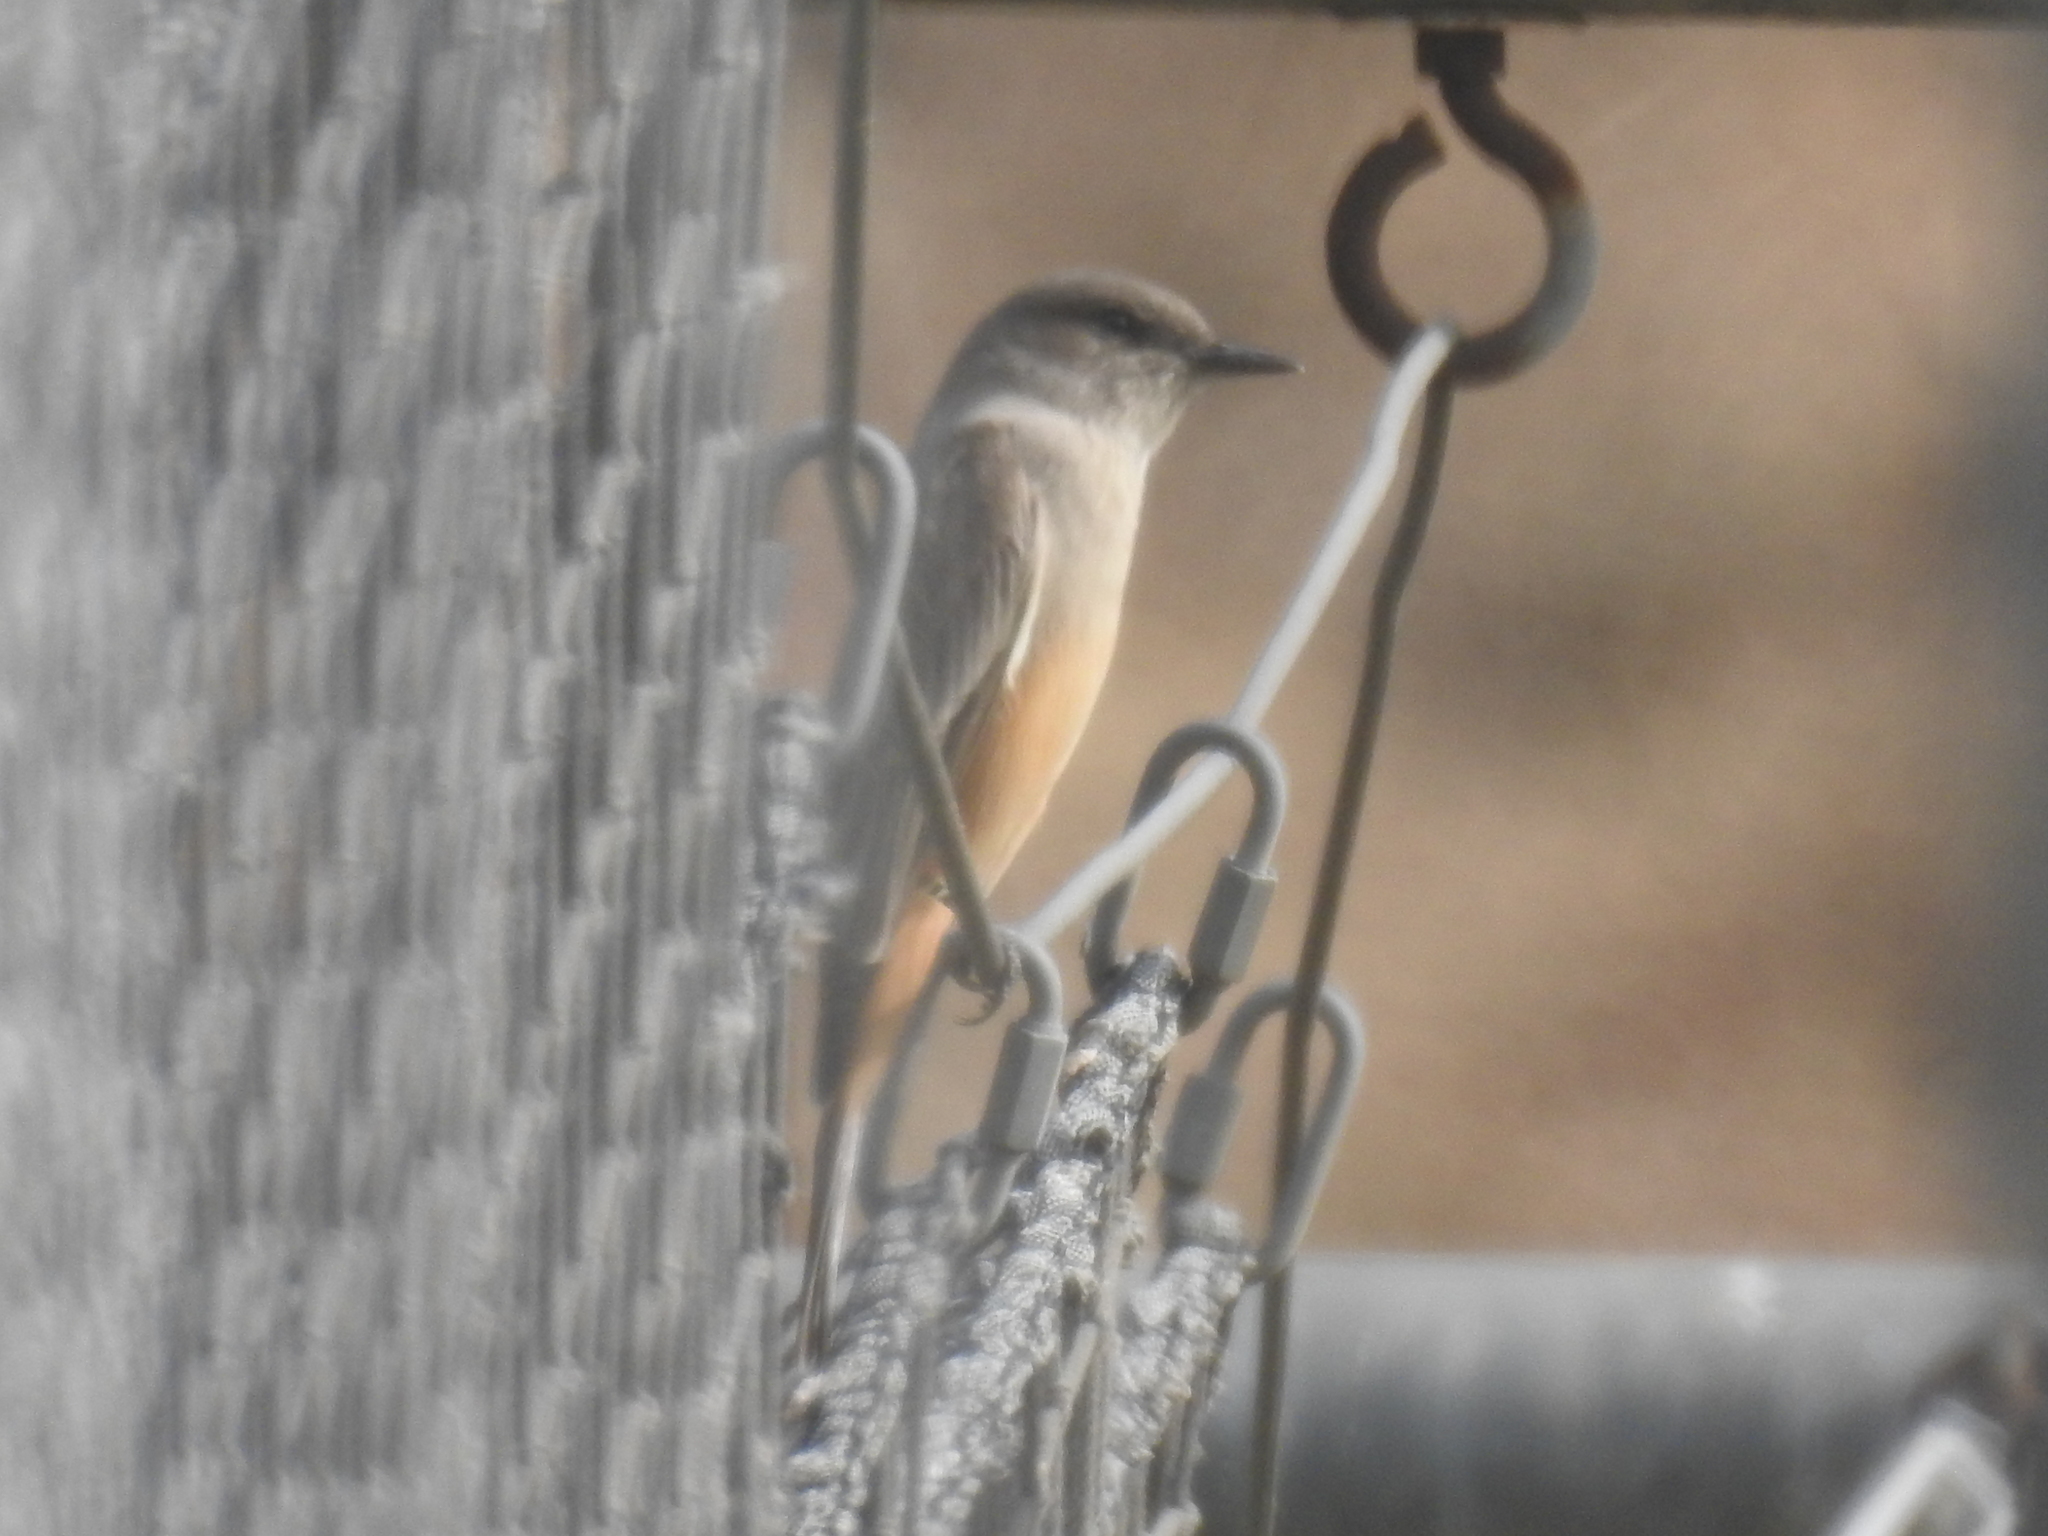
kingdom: Animalia
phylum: Chordata
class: Aves
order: Passeriformes
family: Tyrannidae
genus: Sayornis
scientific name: Sayornis saya
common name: Say's phoebe
